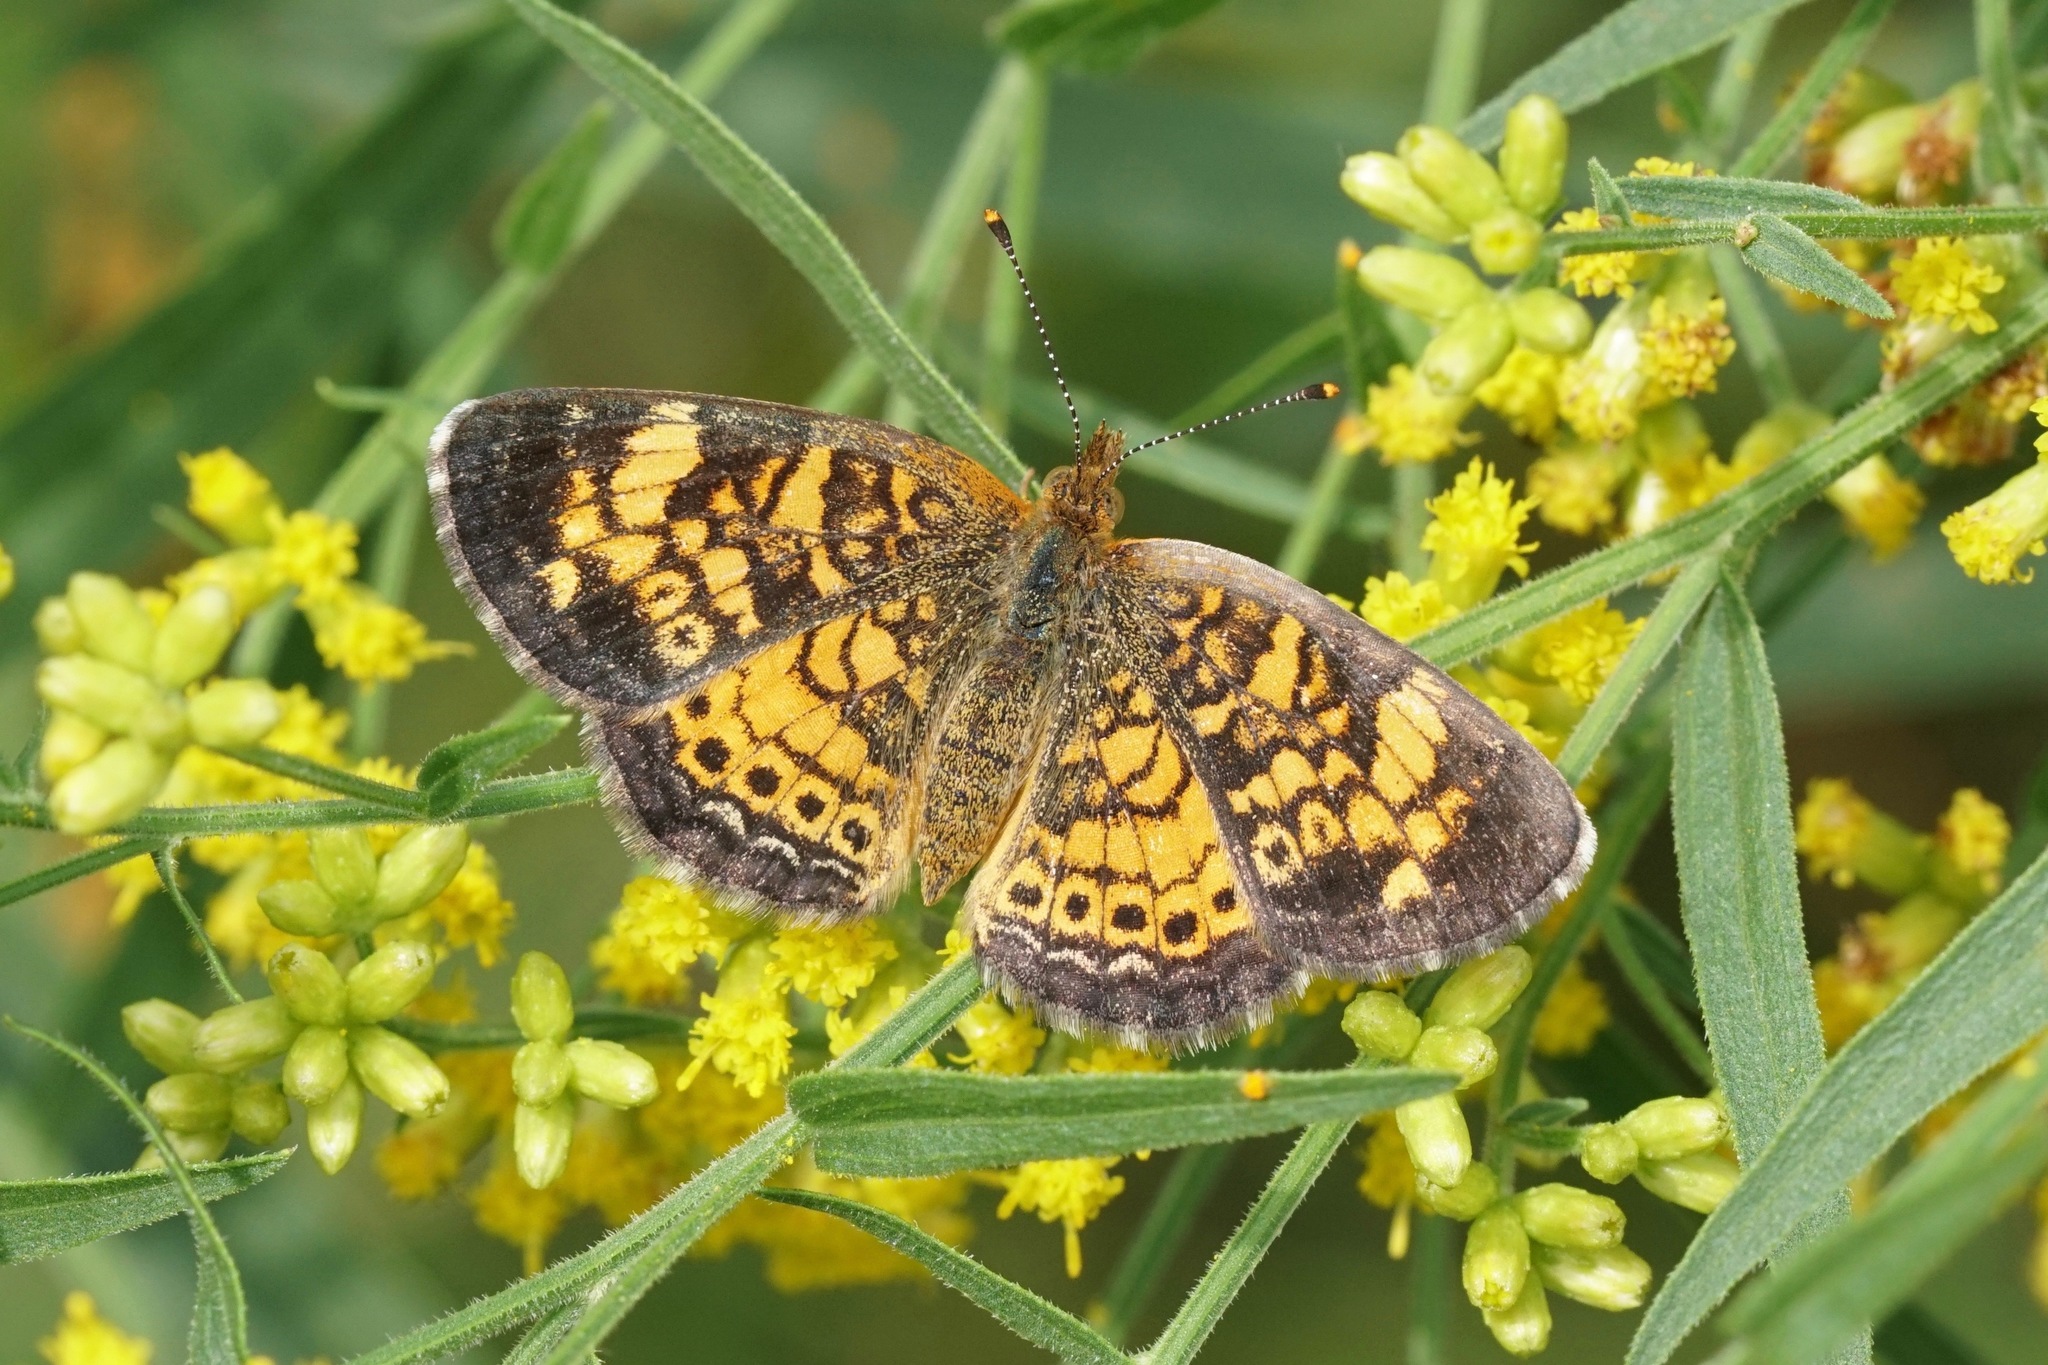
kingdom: Animalia
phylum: Arthropoda
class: Insecta
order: Lepidoptera
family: Nymphalidae
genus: Phyciodes
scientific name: Phyciodes tharos
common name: Pearl crescent
